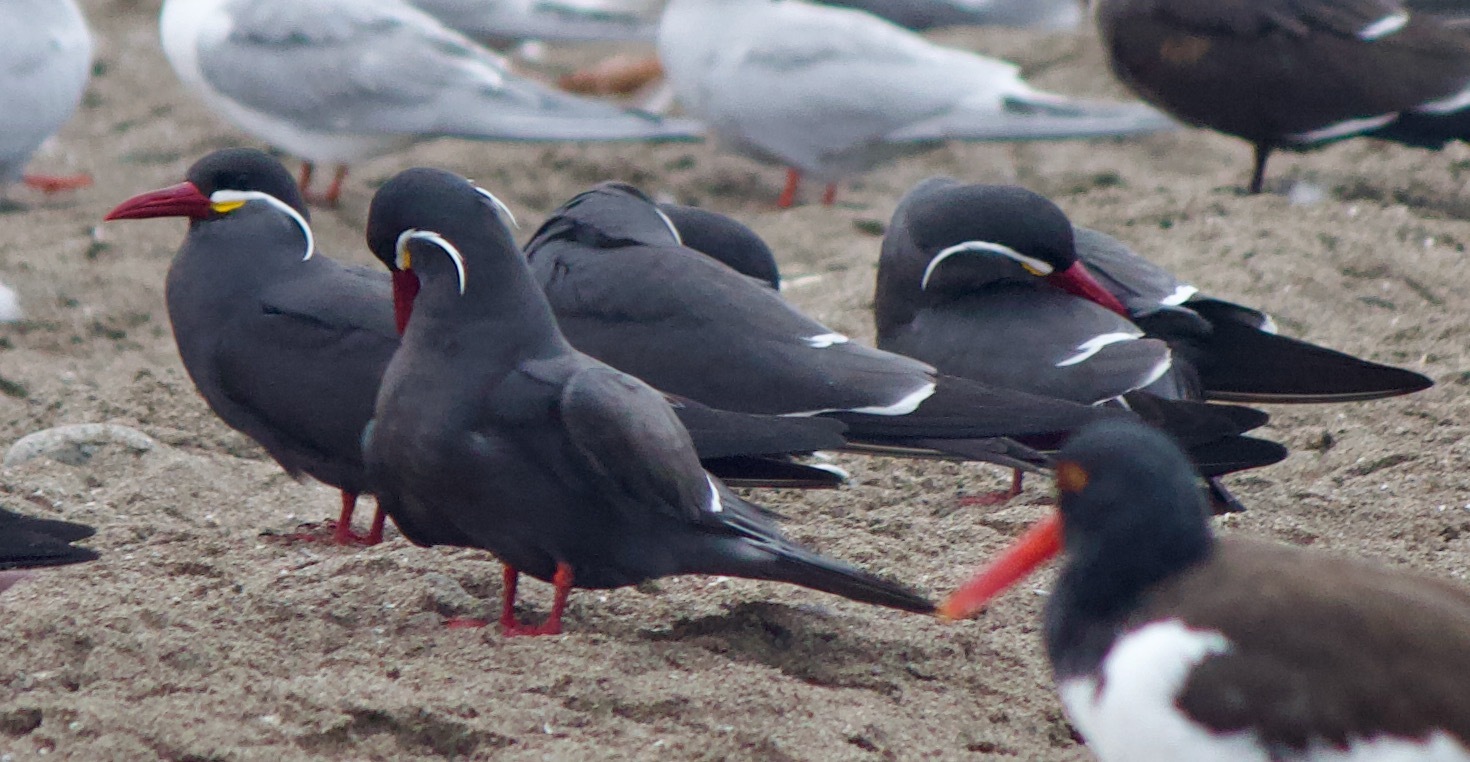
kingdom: Animalia
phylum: Chordata
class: Aves
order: Charadriiformes
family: Laridae
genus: Larosterna
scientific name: Larosterna inca
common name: Inca tern
